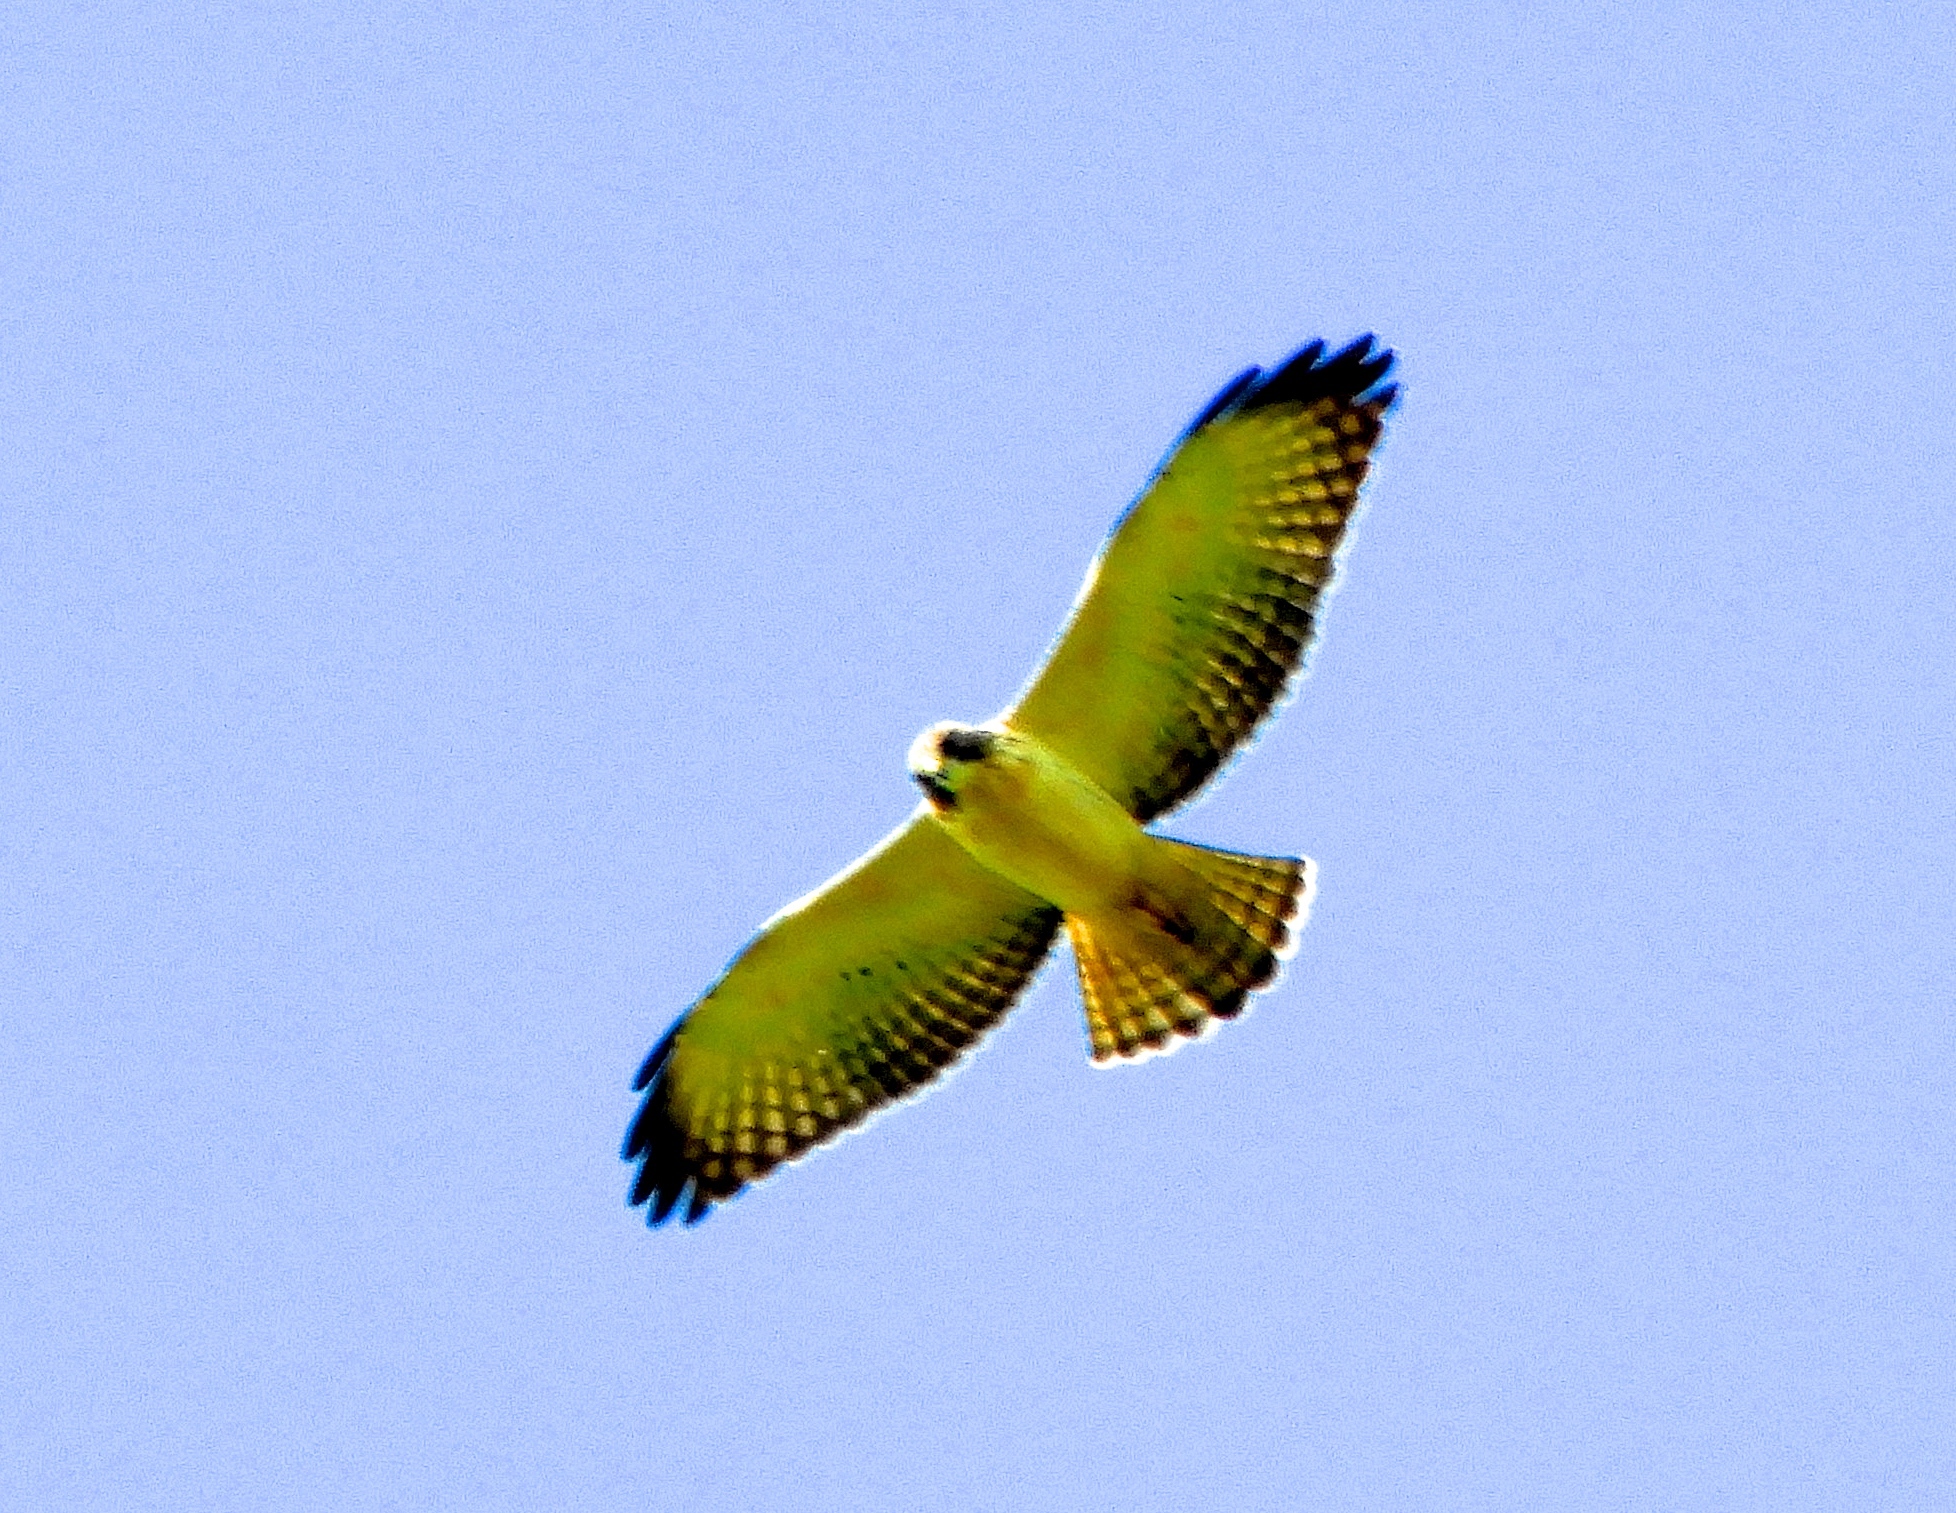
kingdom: Animalia
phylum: Chordata
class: Aves
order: Accipitriformes
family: Accipitridae
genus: Buteo
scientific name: Buteo brachyurus
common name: Short-tailed hawk
